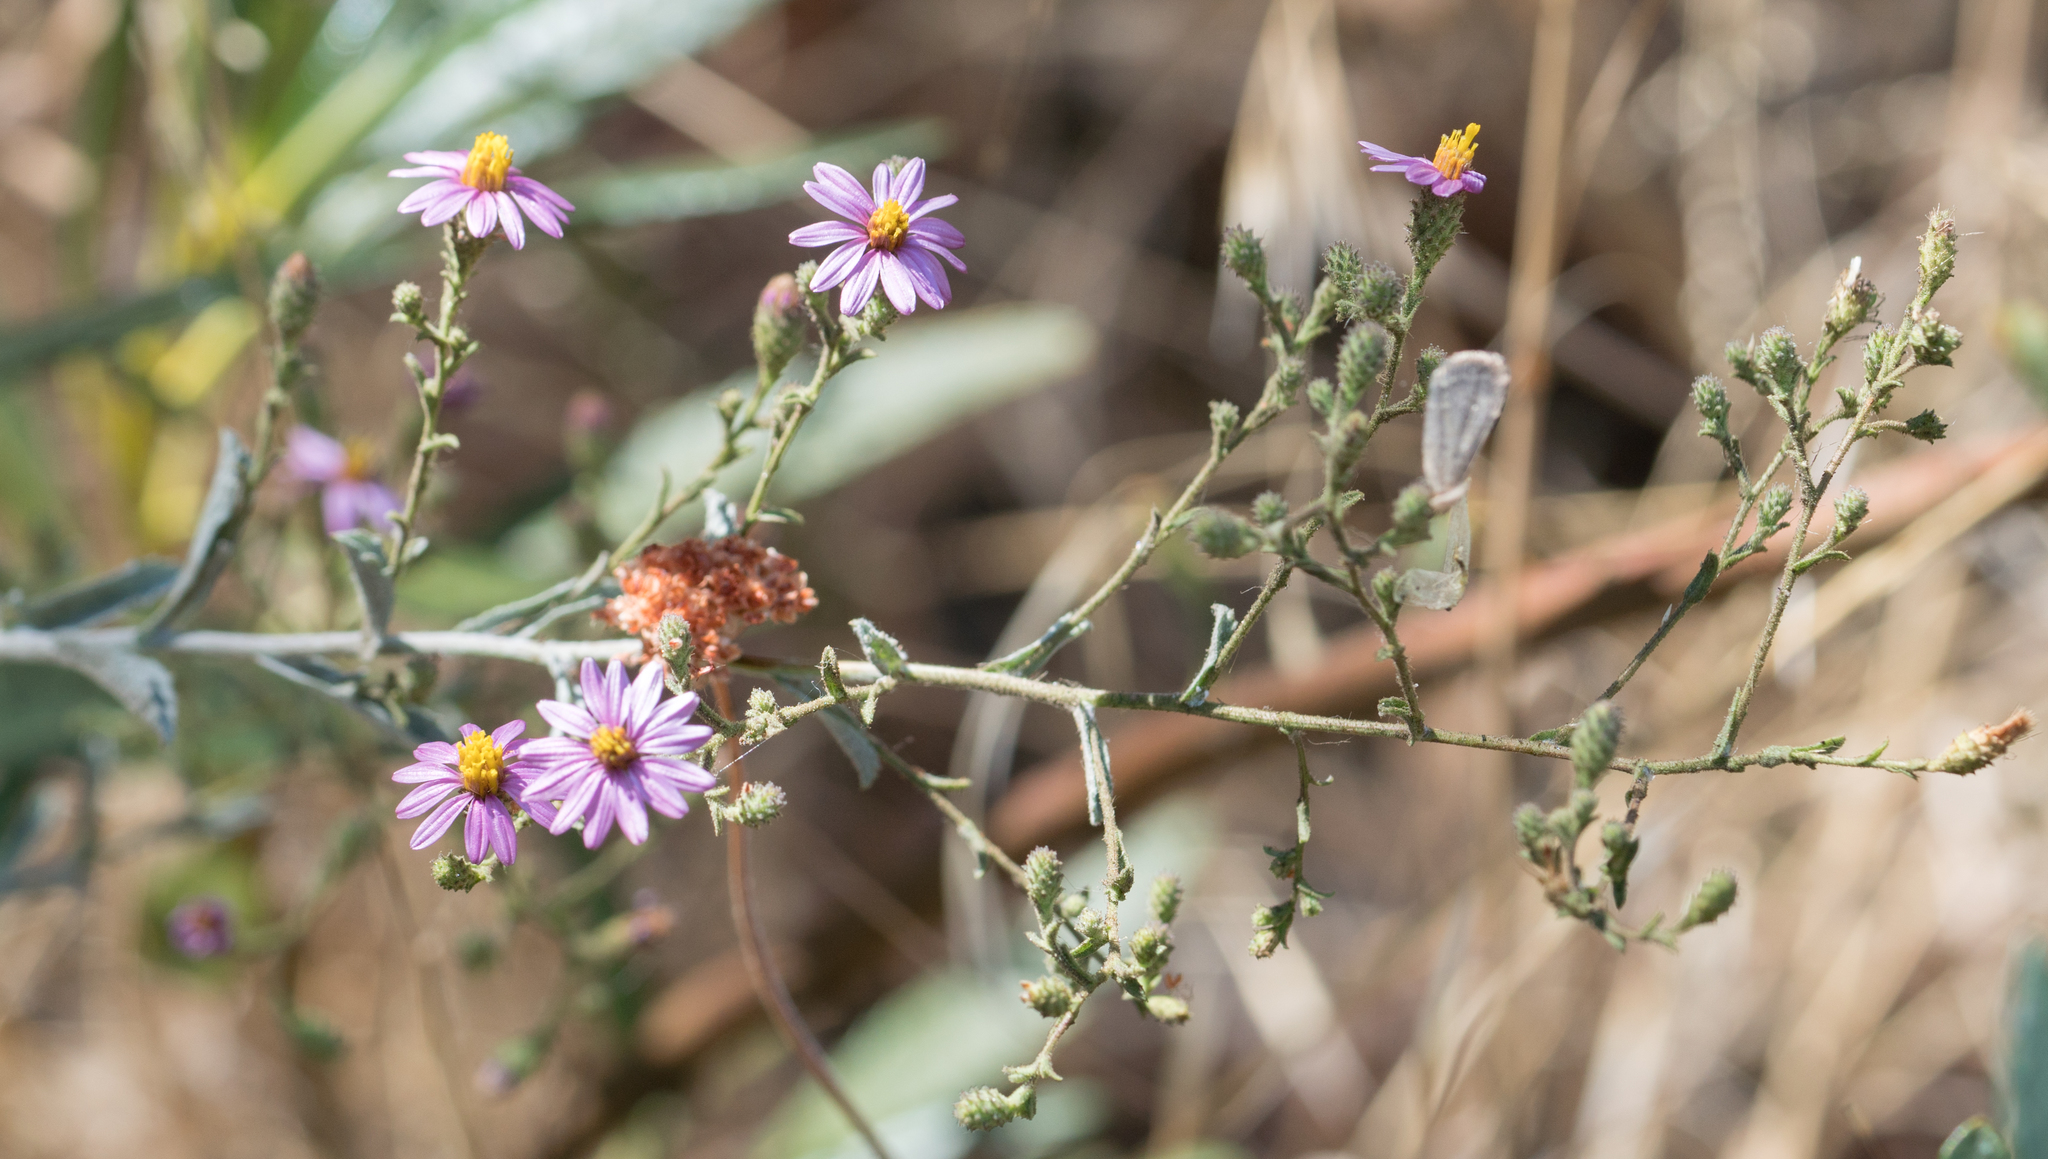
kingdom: Plantae
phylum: Tracheophyta
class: Magnoliopsida
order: Asterales
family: Asteraceae
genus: Corethrogyne
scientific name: Corethrogyne filaginifolia
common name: Sand-aster
